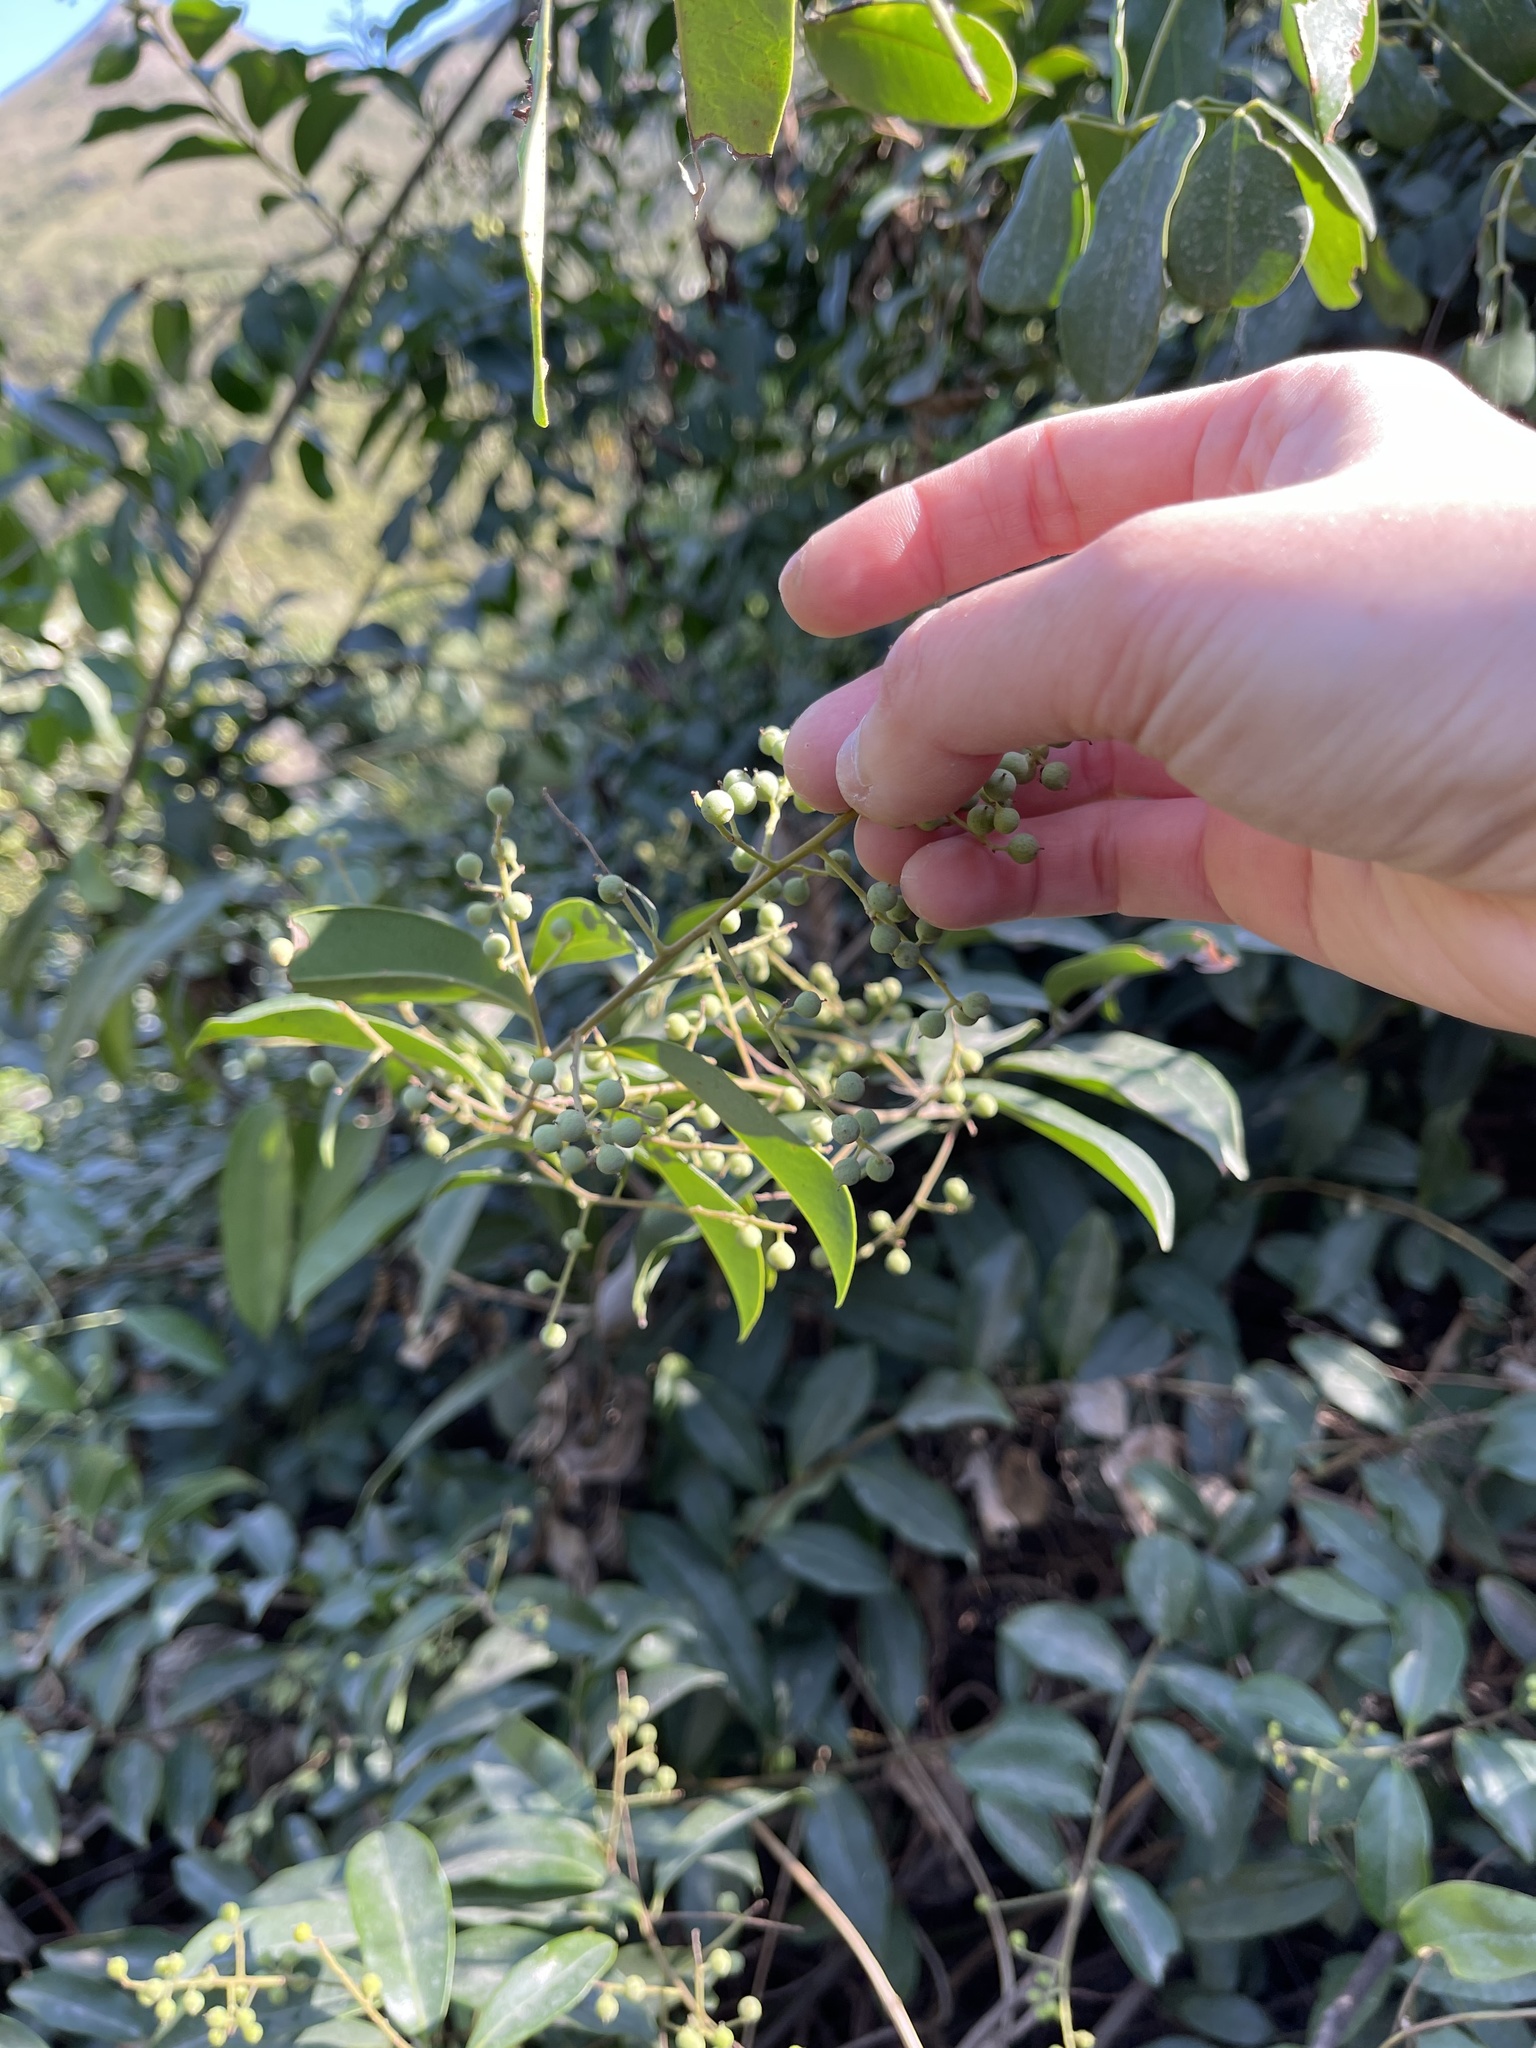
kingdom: Plantae
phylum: Tracheophyta
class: Magnoliopsida
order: Ericales
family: Primulaceae
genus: Embelia
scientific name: Embelia ribes
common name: Vidanga
